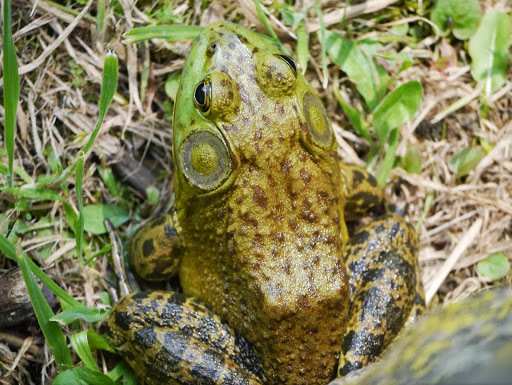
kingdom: Animalia
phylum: Chordata
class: Amphibia
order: Anura
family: Ranidae
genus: Lithobates
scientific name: Lithobates catesbeianus
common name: American bullfrog
